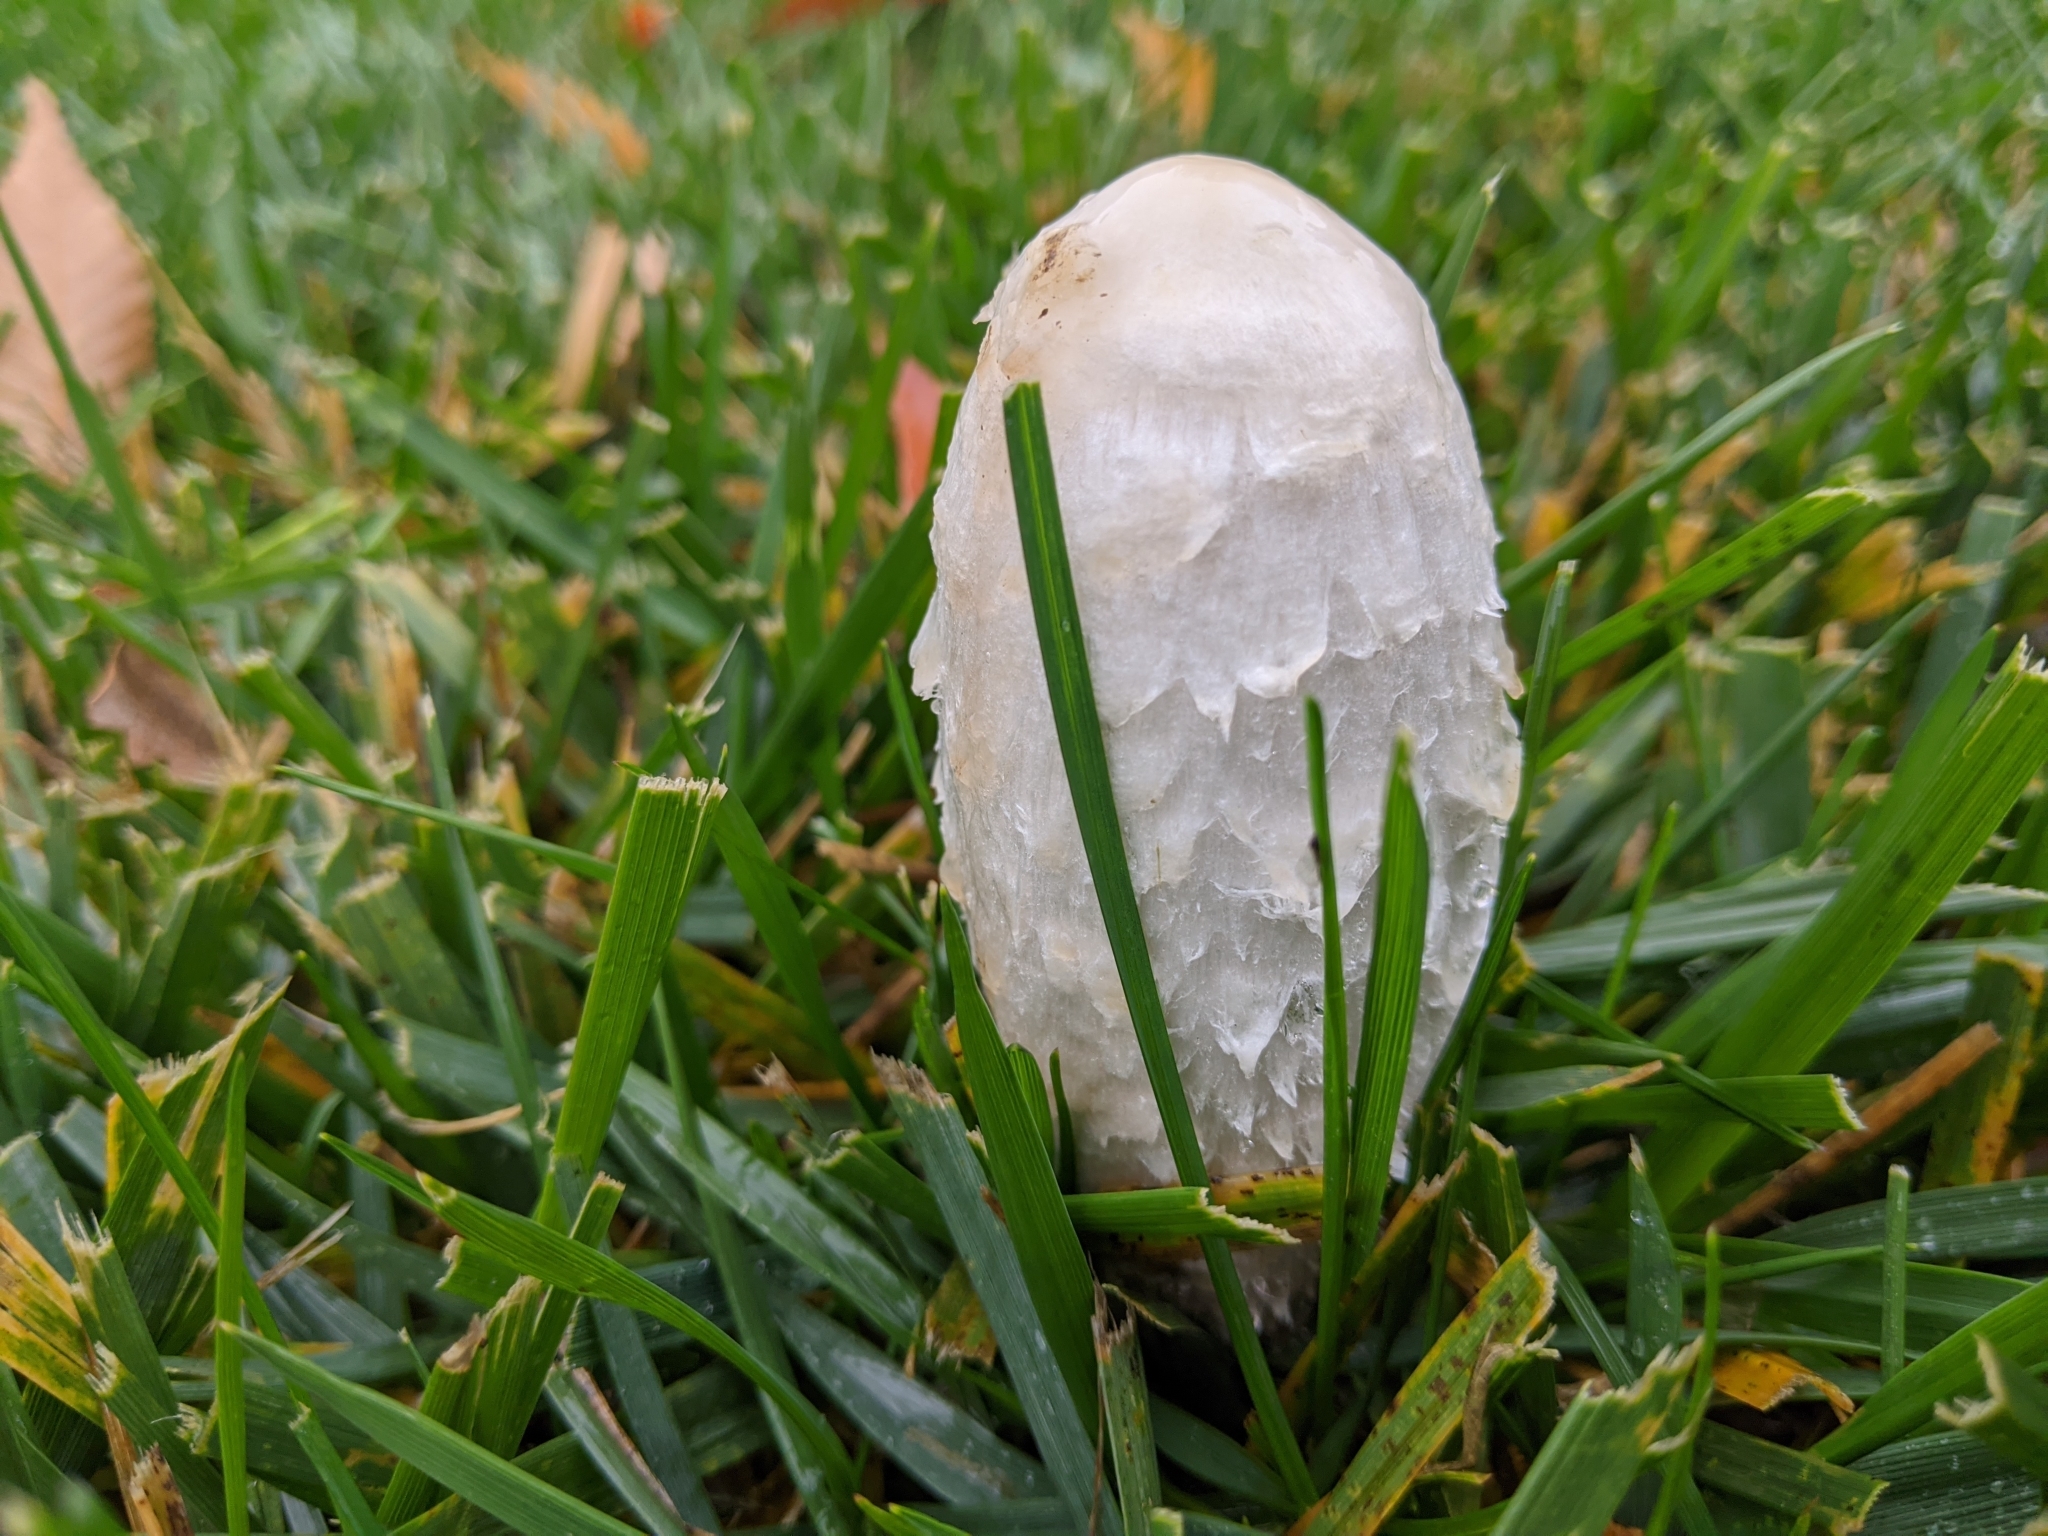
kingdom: Fungi
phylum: Basidiomycota
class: Agaricomycetes
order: Agaricales
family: Agaricaceae
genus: Coprinus
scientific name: Coprinus comatus
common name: Lawyer's wig
